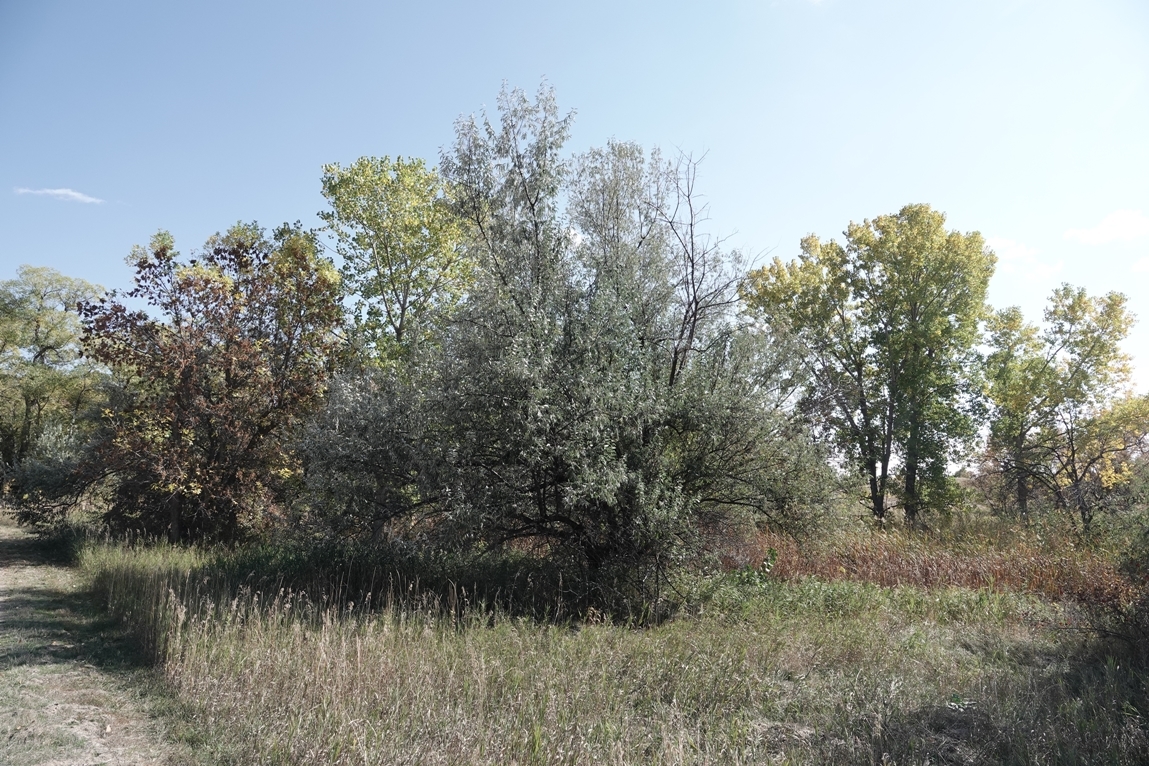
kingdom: Plantae
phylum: Tracheophyta
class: Magnoliopsida
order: Rosales
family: Elaeagnaceae
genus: Elaeagnus
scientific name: Elaeagnus angustifolia
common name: Russian olive
